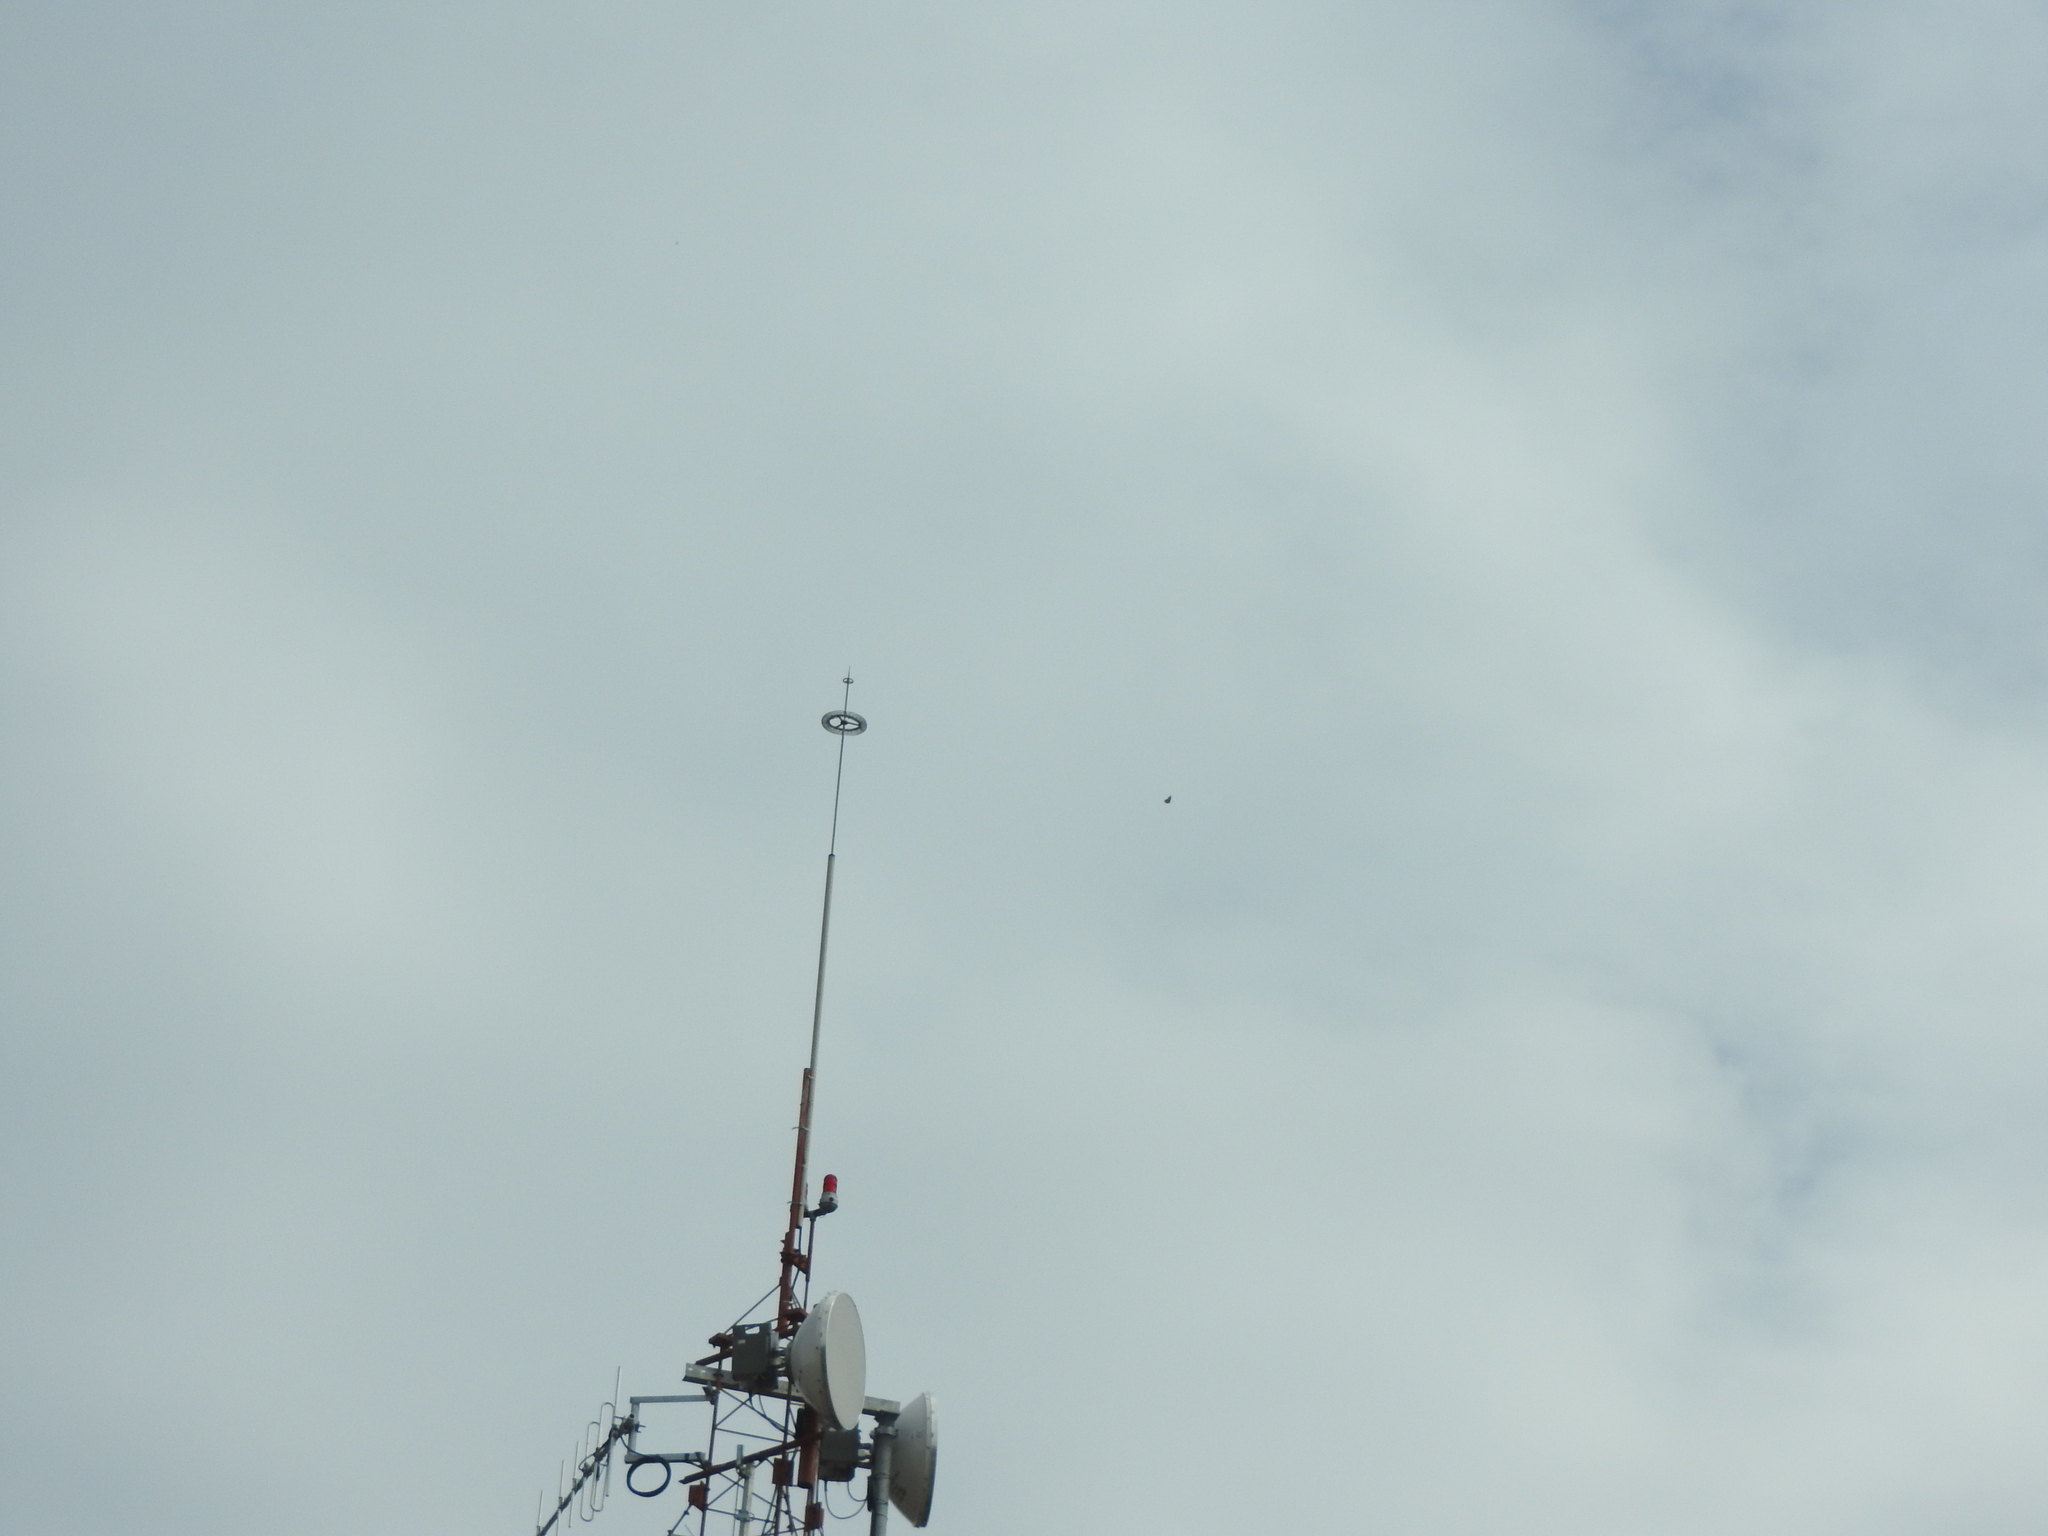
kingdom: Animalia
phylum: Arthropoda
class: Insecta
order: Lepidoptera
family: Nymphalidae
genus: Danaus
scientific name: Danaus plexippus
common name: Monarch
